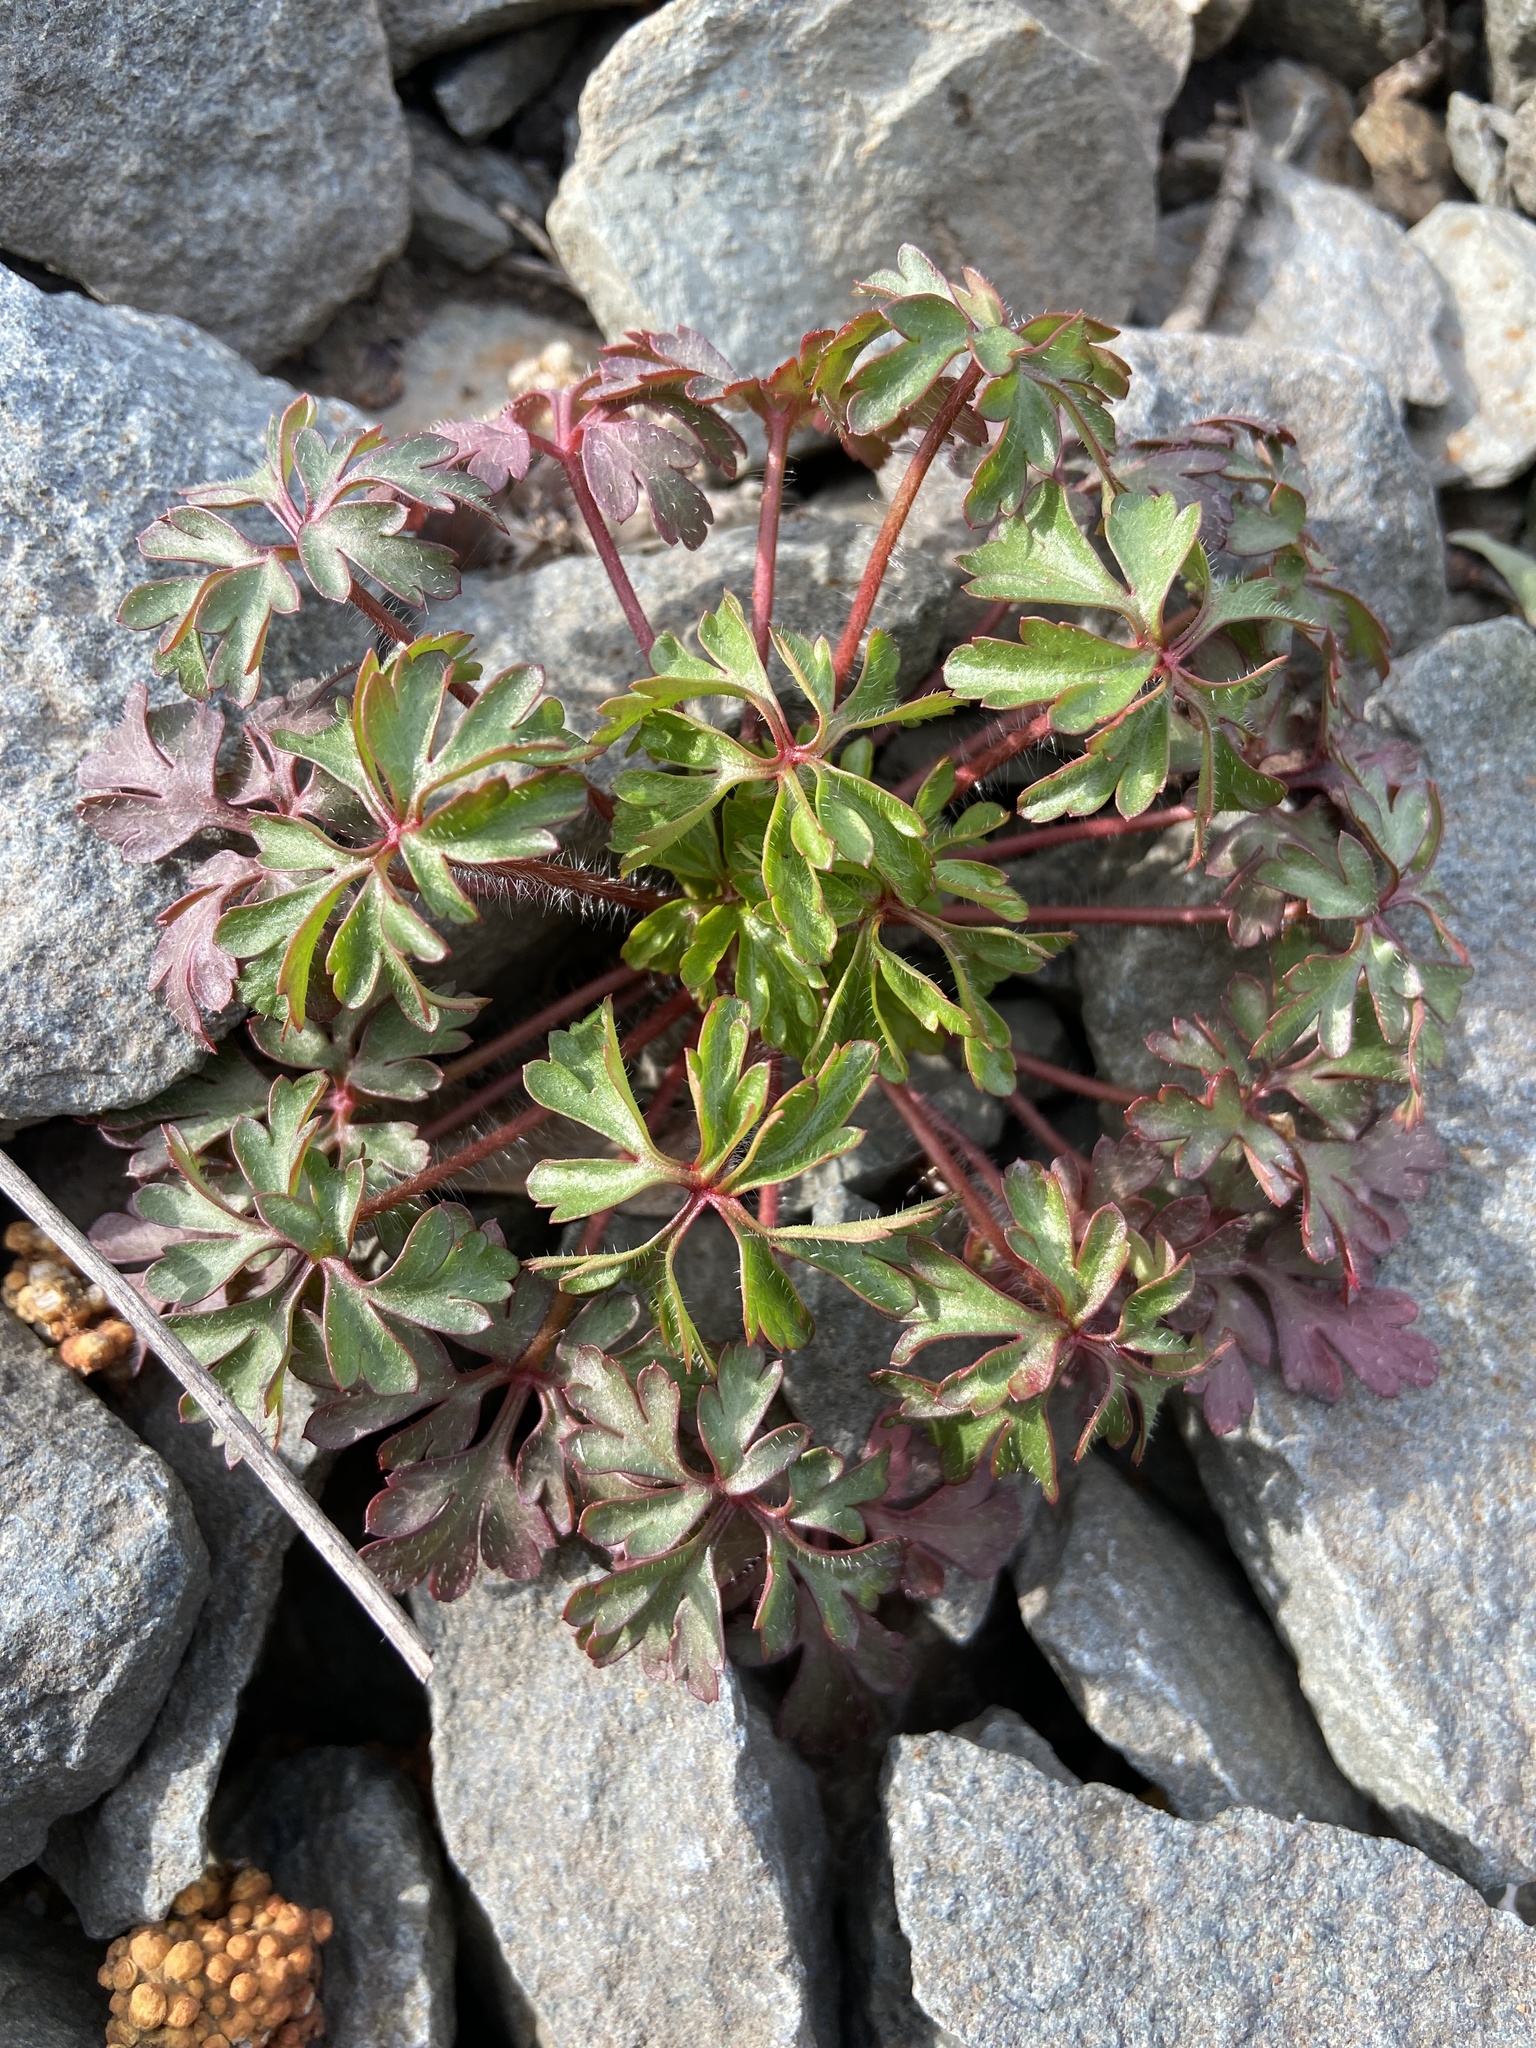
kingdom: Plantae
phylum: Tracheophyta
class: Magnoliopsida
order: Geraniales
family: Geraniaceae
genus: Geranium
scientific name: Geranium purpureum
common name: Little-robin
